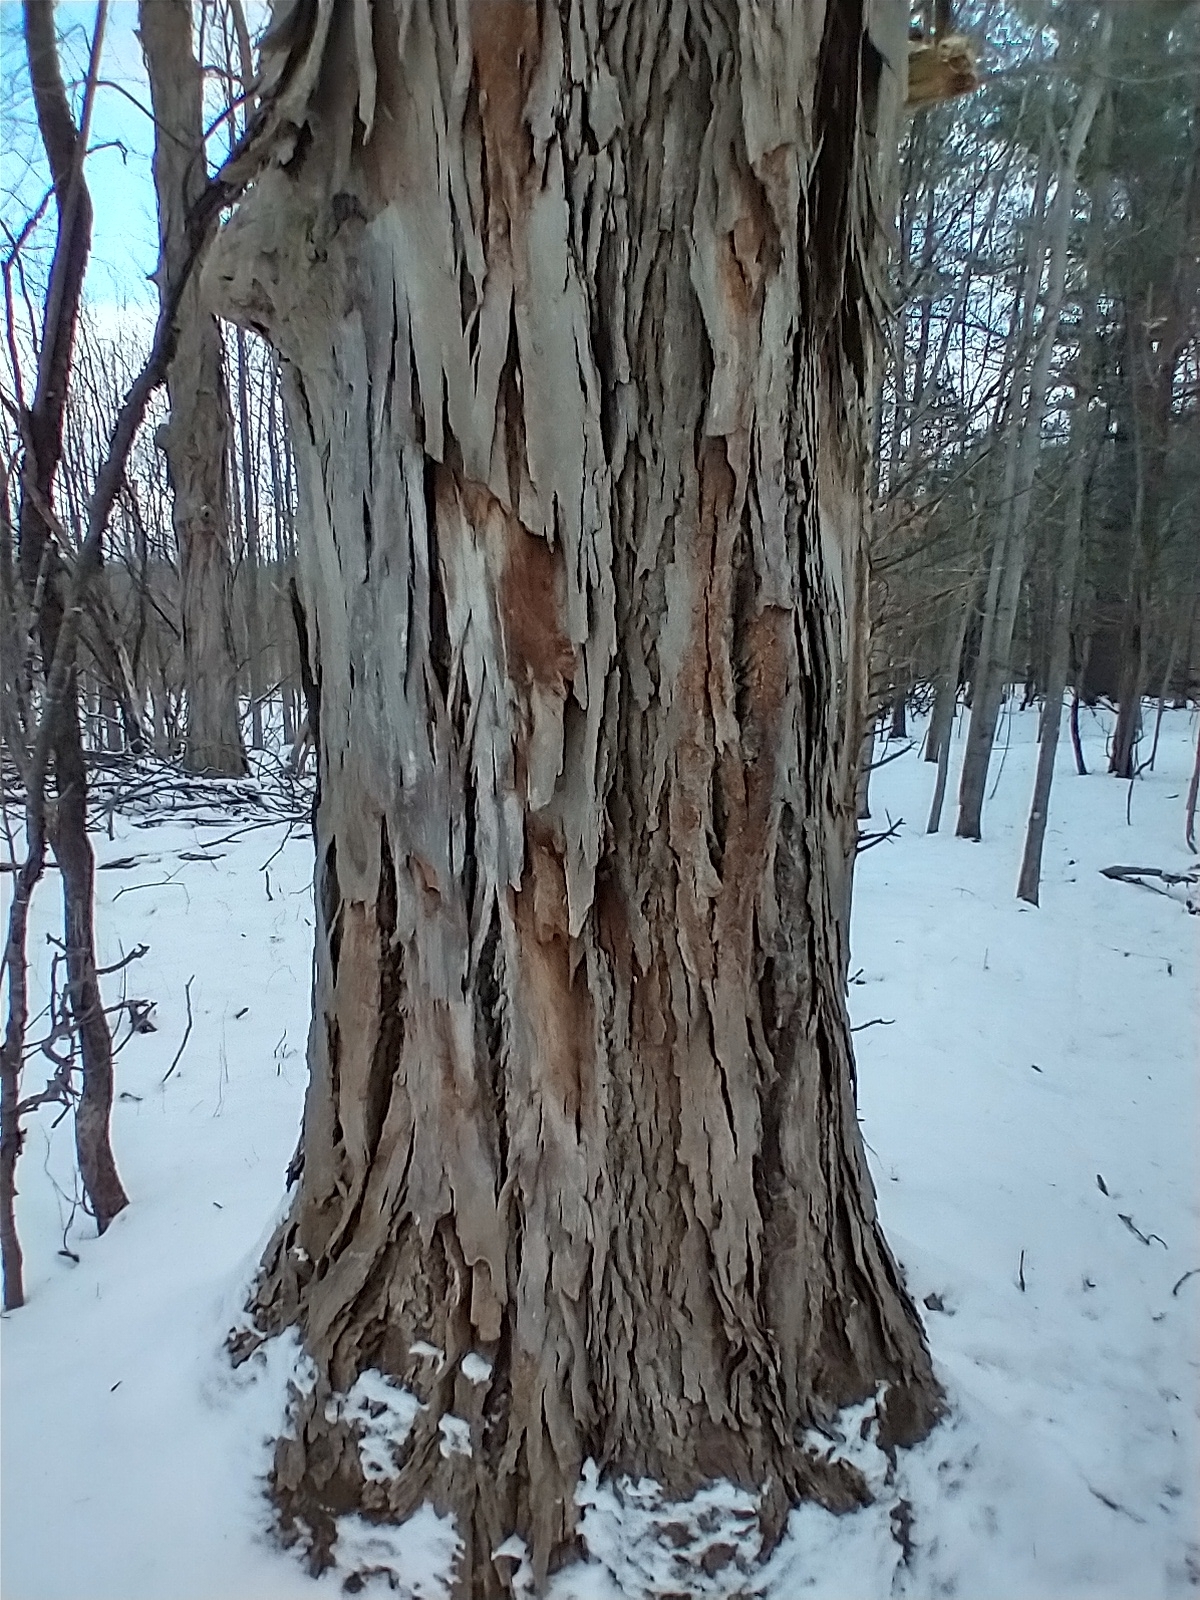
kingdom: Plantae
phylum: Tracheophyta
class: Magnoliopsida
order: Fagales
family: Juglandaceae
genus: Carya
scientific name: Carya ovata
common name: Shagbark hickory
